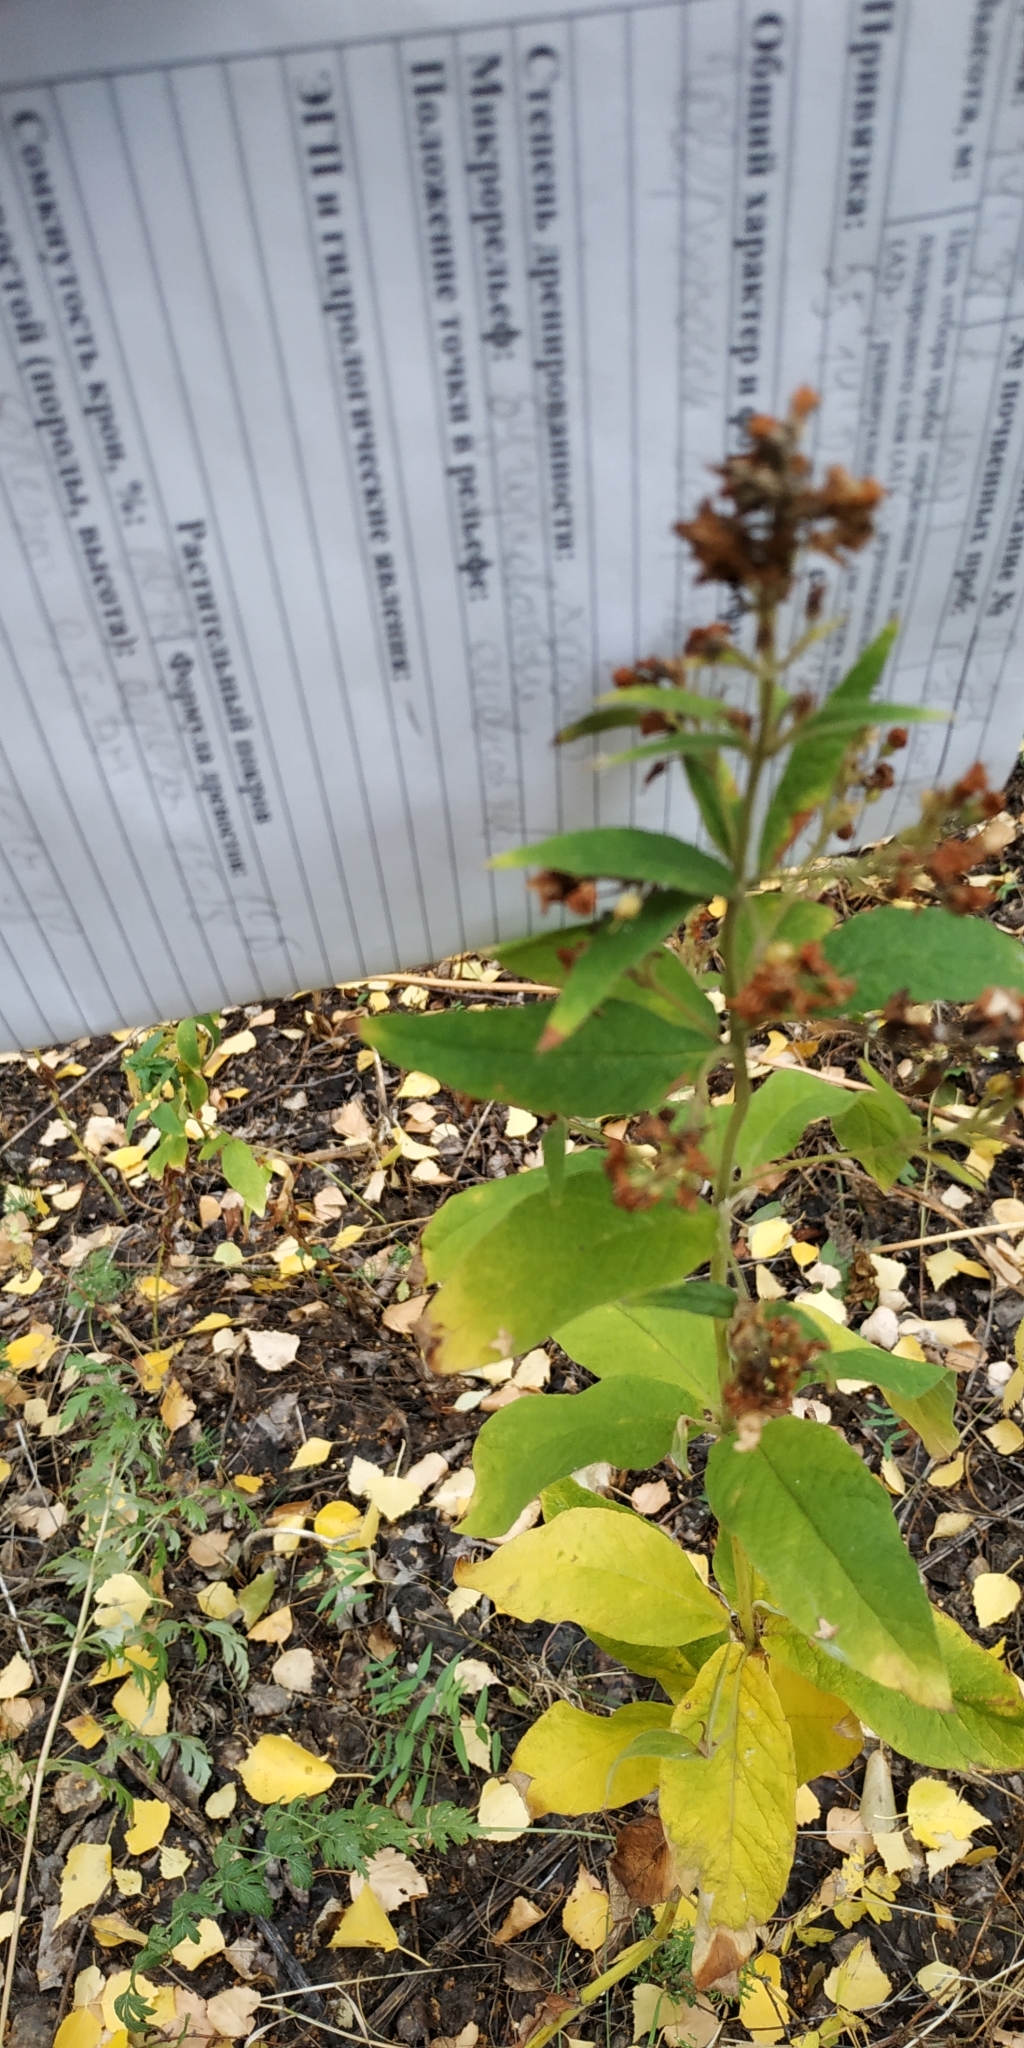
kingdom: Plantae
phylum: Tracheophyta
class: Magnoliopsida
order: Ericales
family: Primulaceae
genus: Lysimachia
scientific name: Lysimachia vulgaris
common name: Yellow loosestrife
